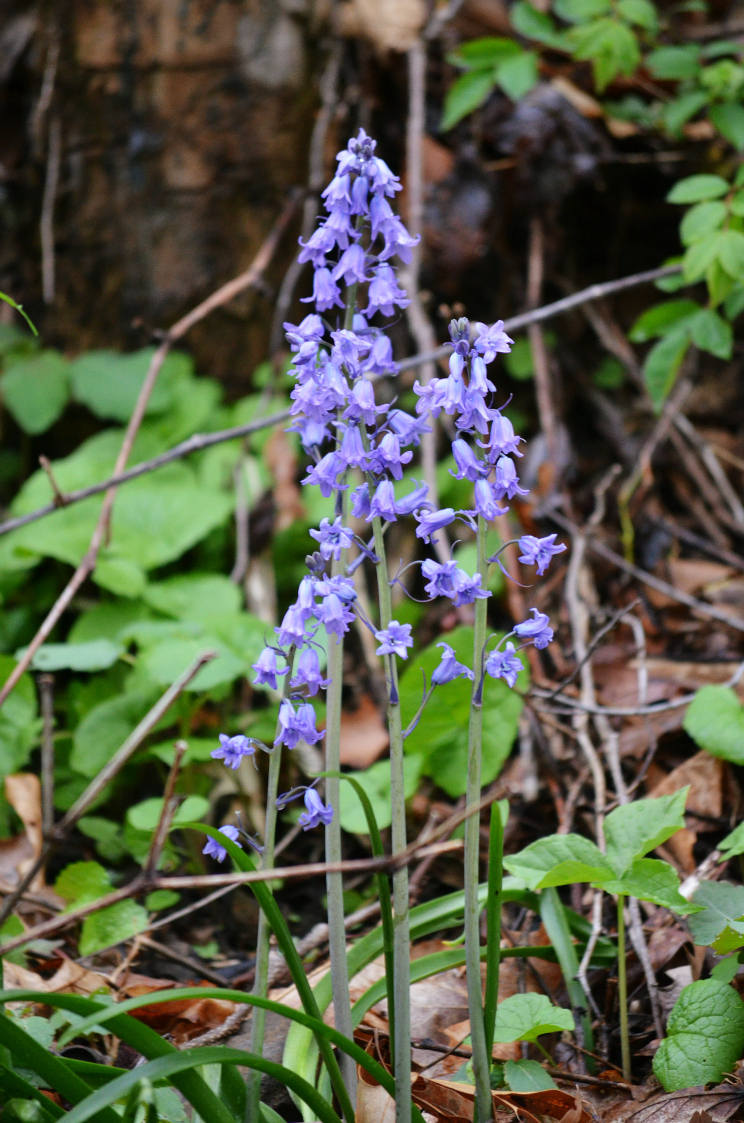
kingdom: Plantae
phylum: Tracheophyta
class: Liliopsida
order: Asparagales
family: Asparagaceae
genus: Hyacinthoides
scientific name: Hyacinthoides hispanica
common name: Spanish bluebell
